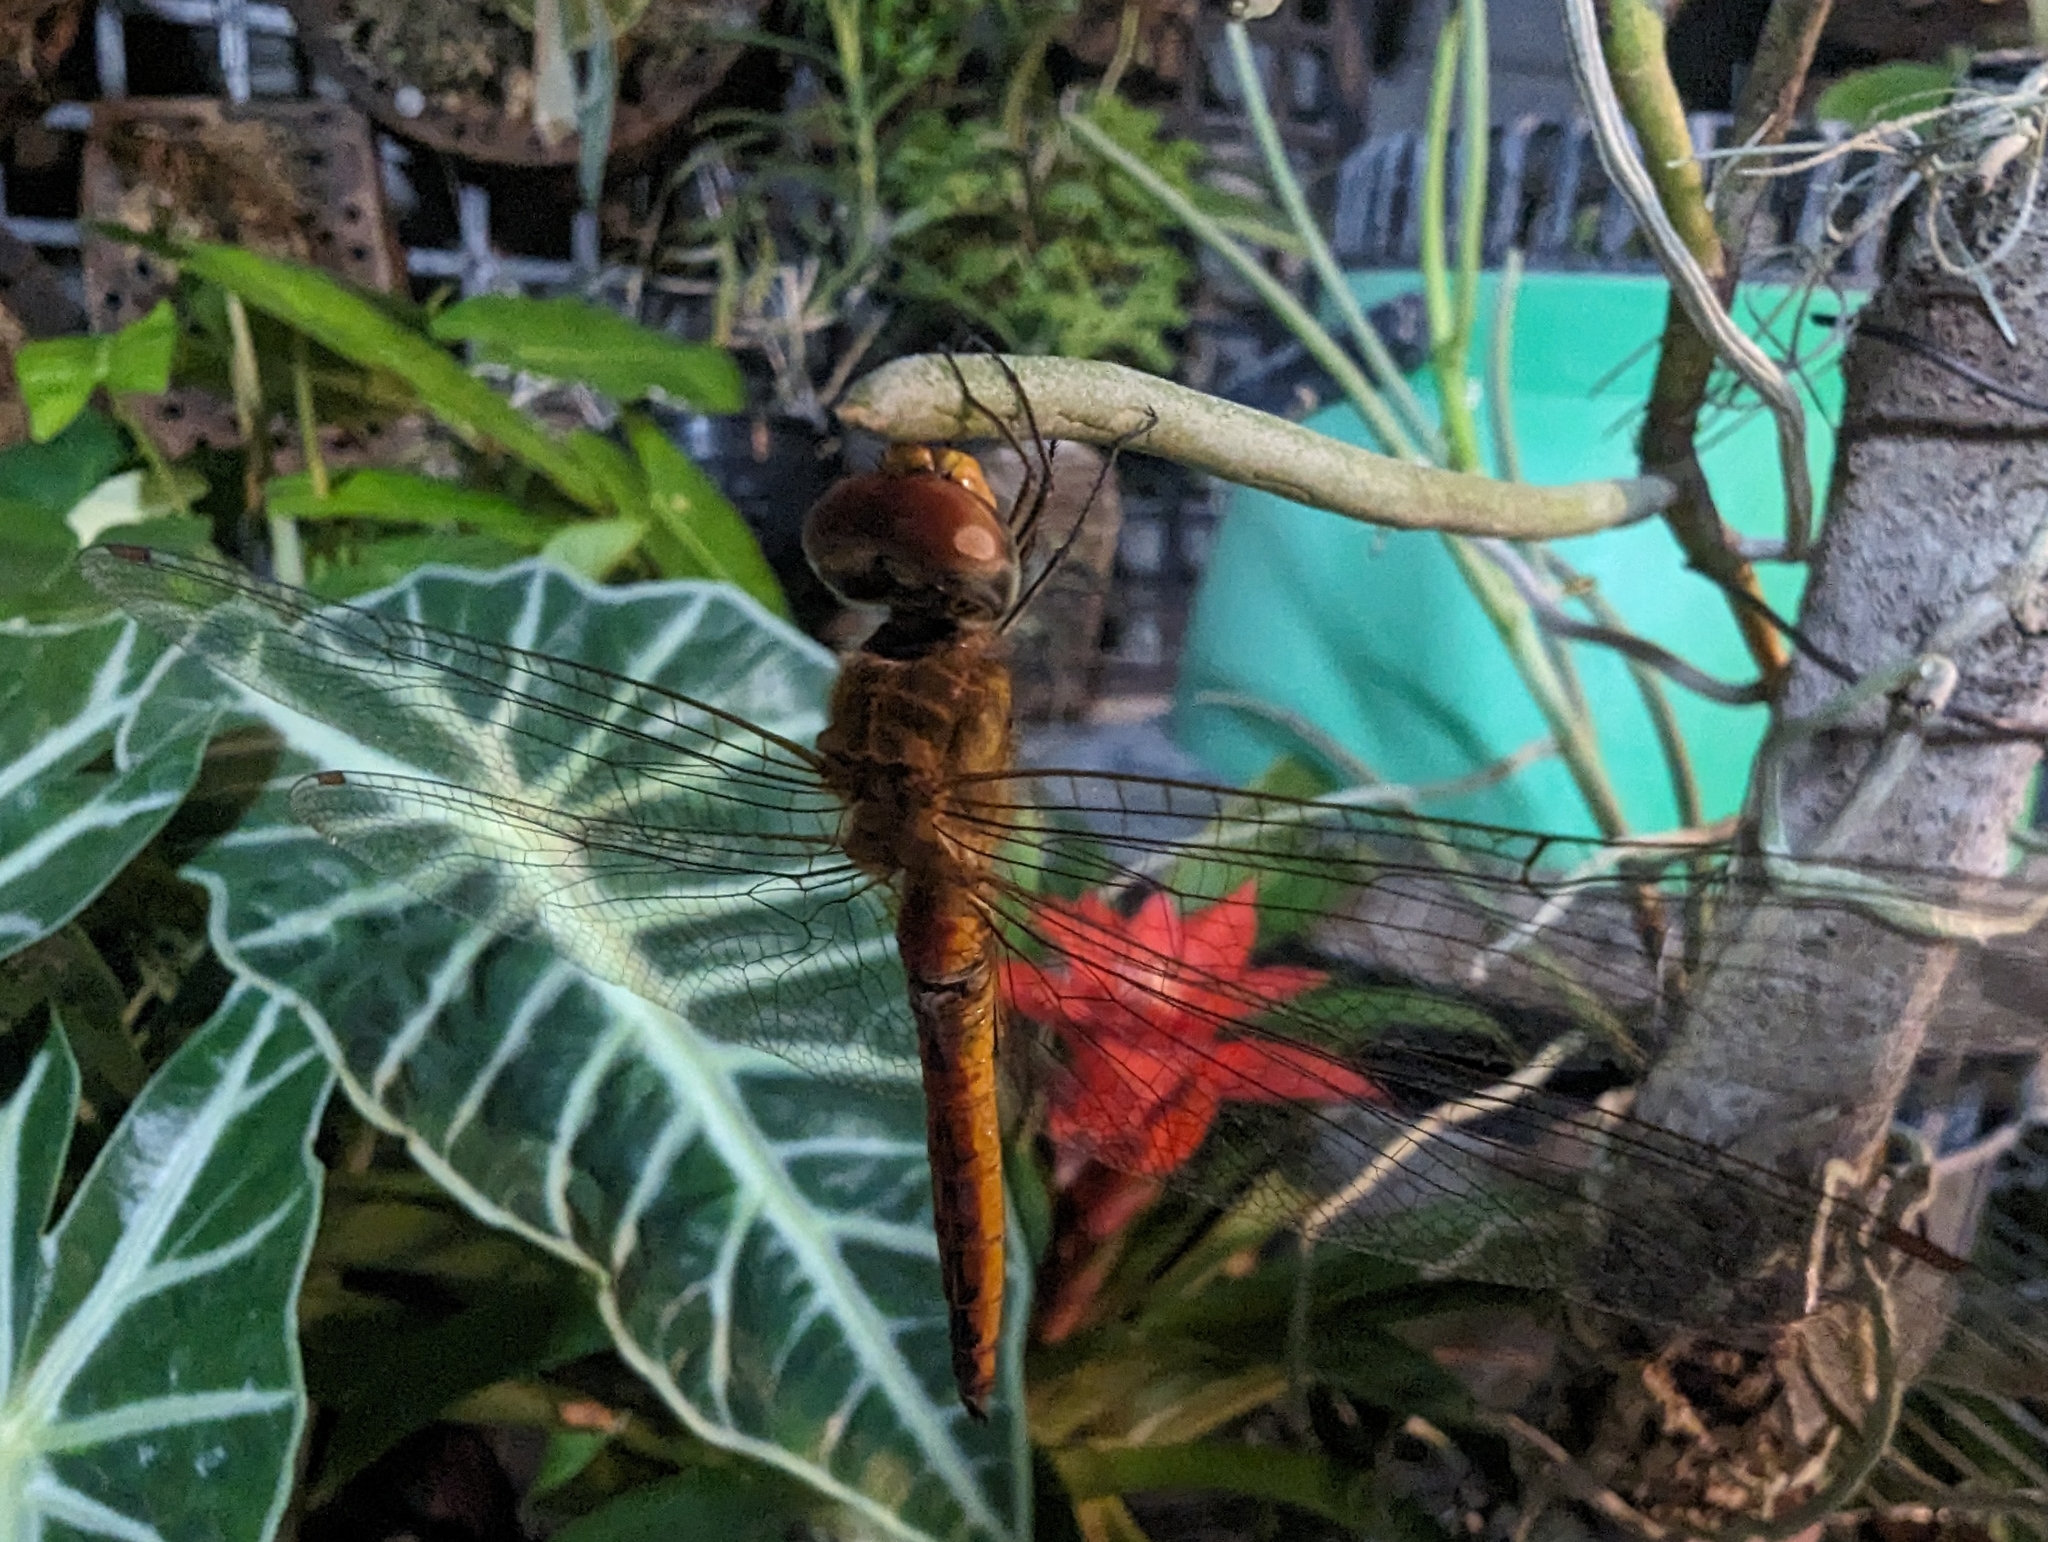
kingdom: Animalia
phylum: Arthropoda
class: Insecta
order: Odonata
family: Libellulidae
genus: Pantala
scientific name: Pantala flavescens
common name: Wandering glider
